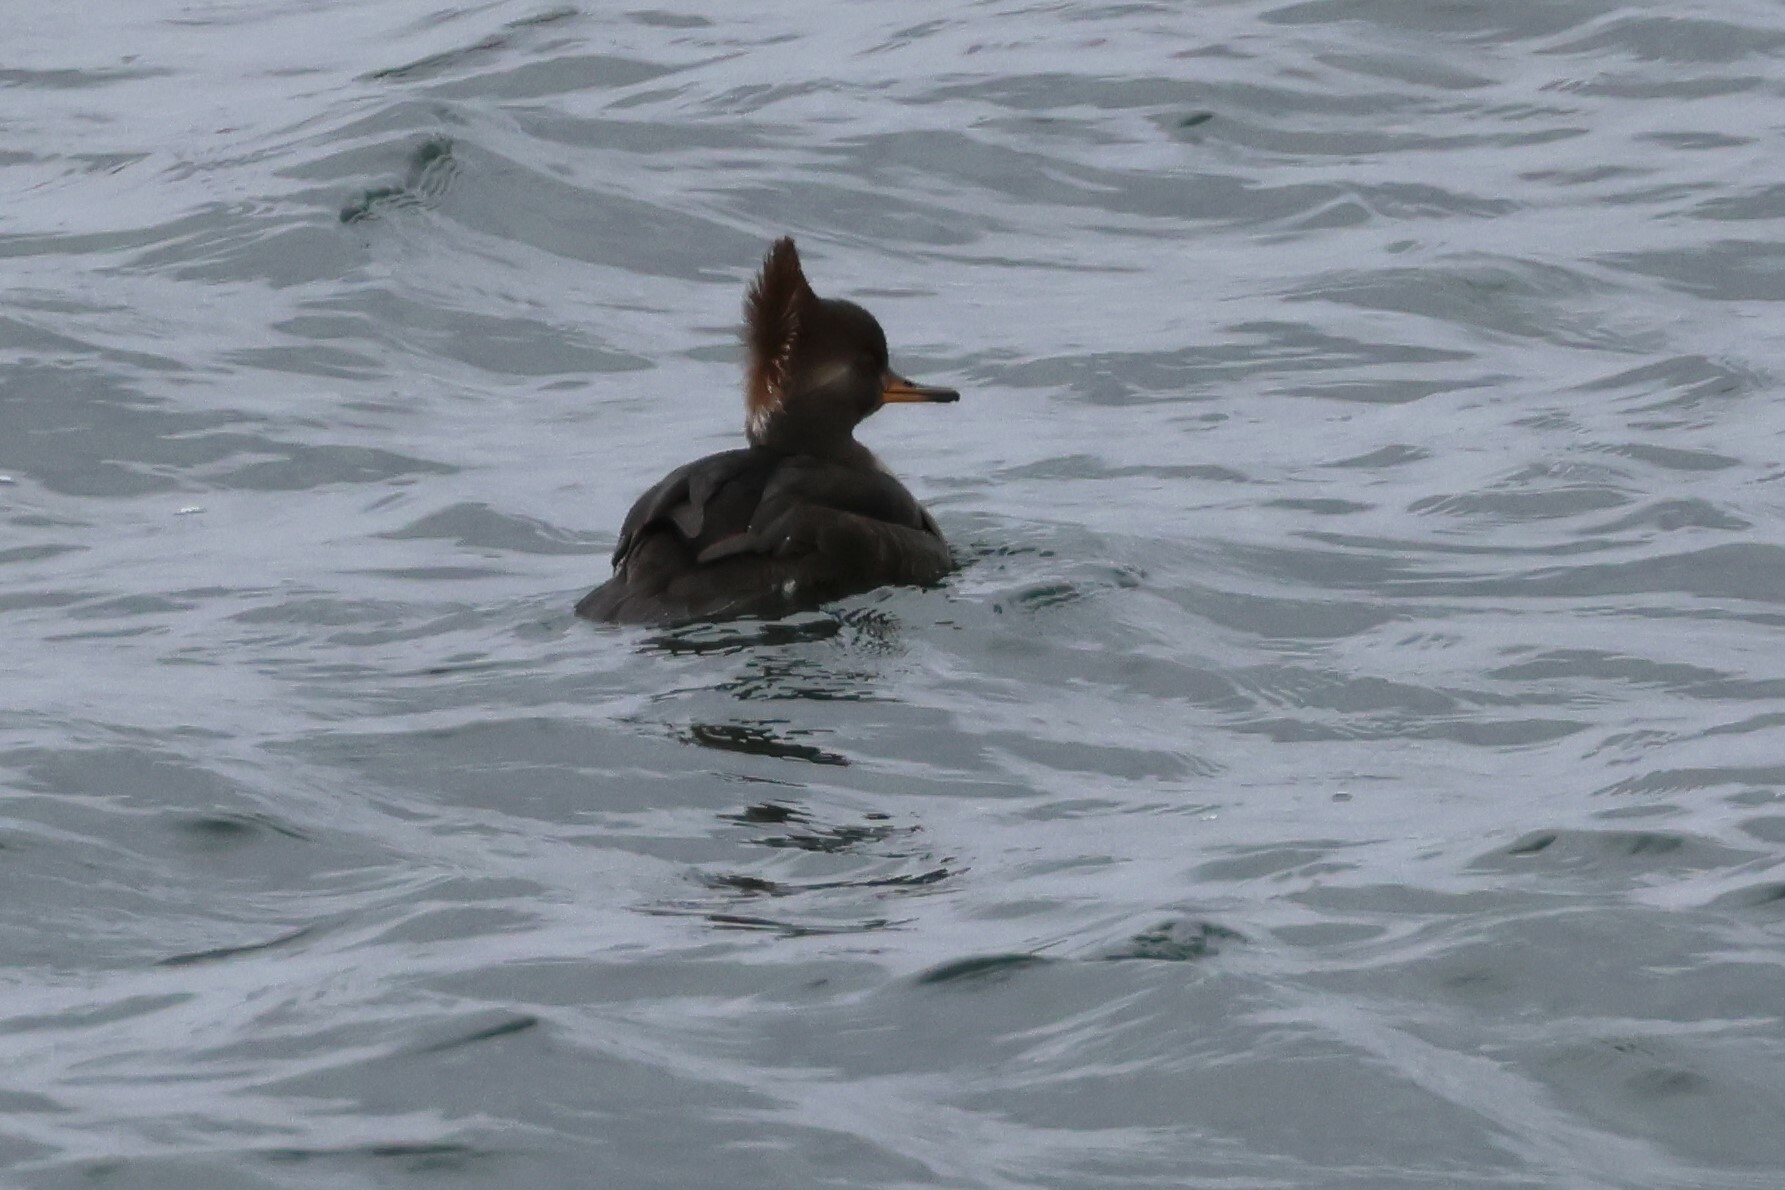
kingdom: Animalia
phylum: Chordata
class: Aves
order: Anseriformes
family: Anatidae
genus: Lophodytes
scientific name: Lophodytes cucullatus
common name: Hooded merganser
